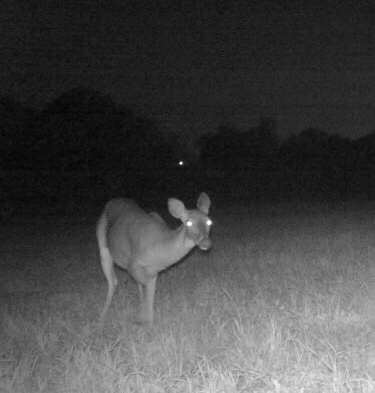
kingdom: Animalia
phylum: Chordata
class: Mammalia
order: Artiodactyla
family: Cervidae
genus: Odocoileus
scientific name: Odocoileus virginianus
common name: White-tailed deer
